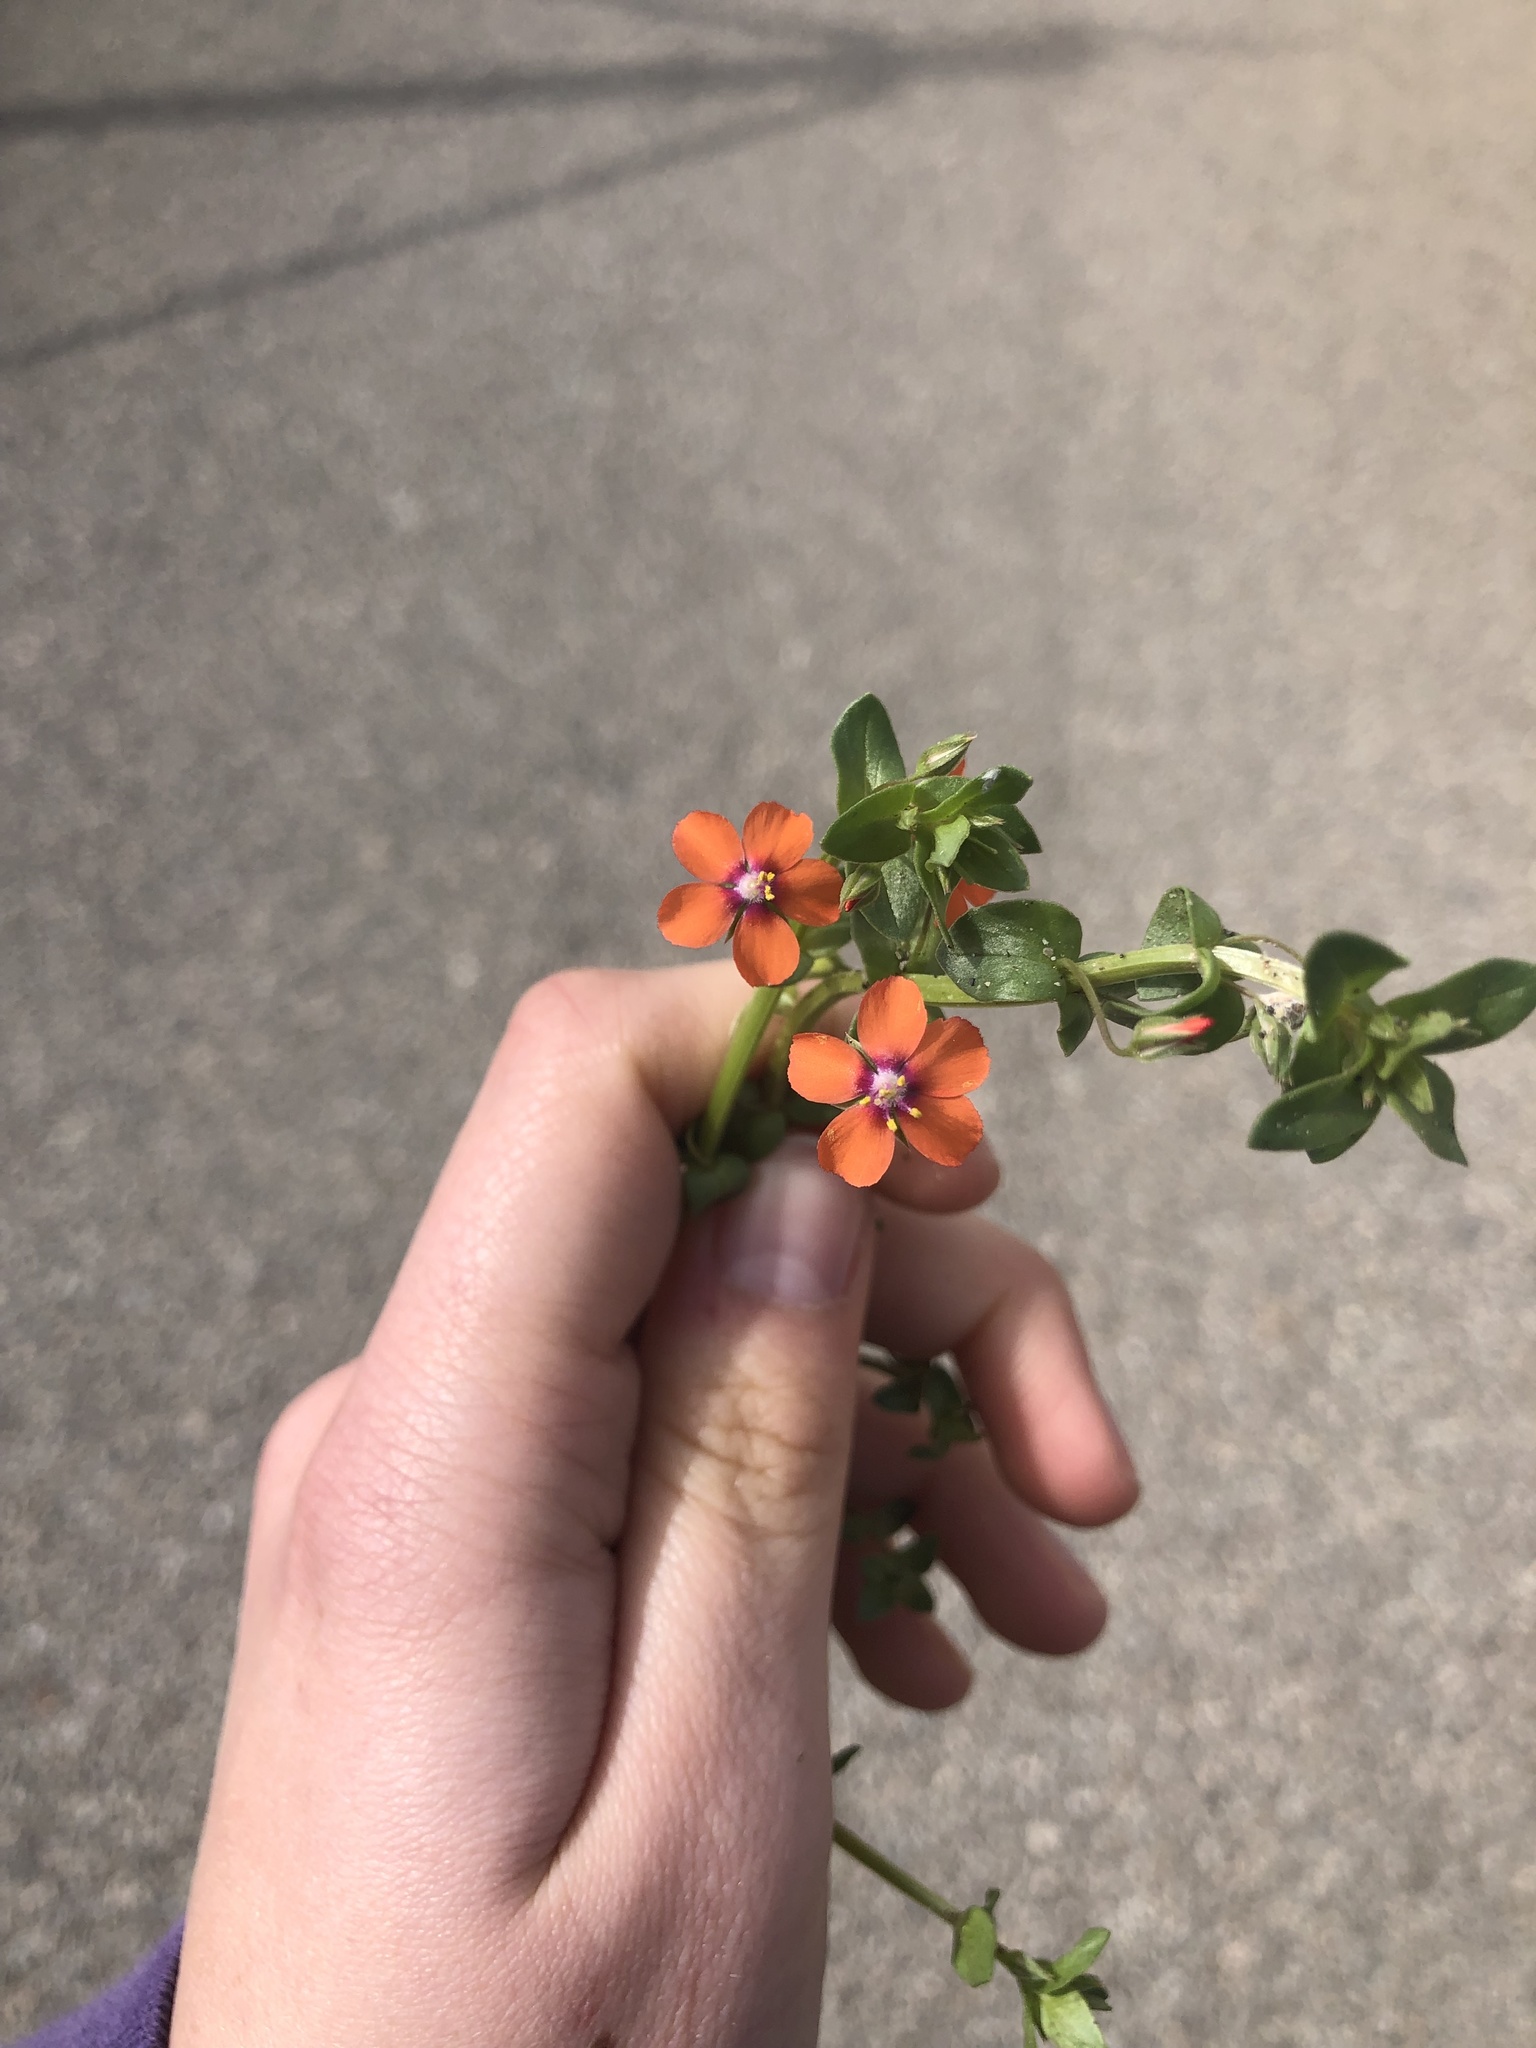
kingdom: Plantae
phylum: Tracheophyta
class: Magnoliopsida
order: Ericales
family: Primulaceae
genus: Lysimachia
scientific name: Lysimachia arvensis
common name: Scarlet pimpernel
